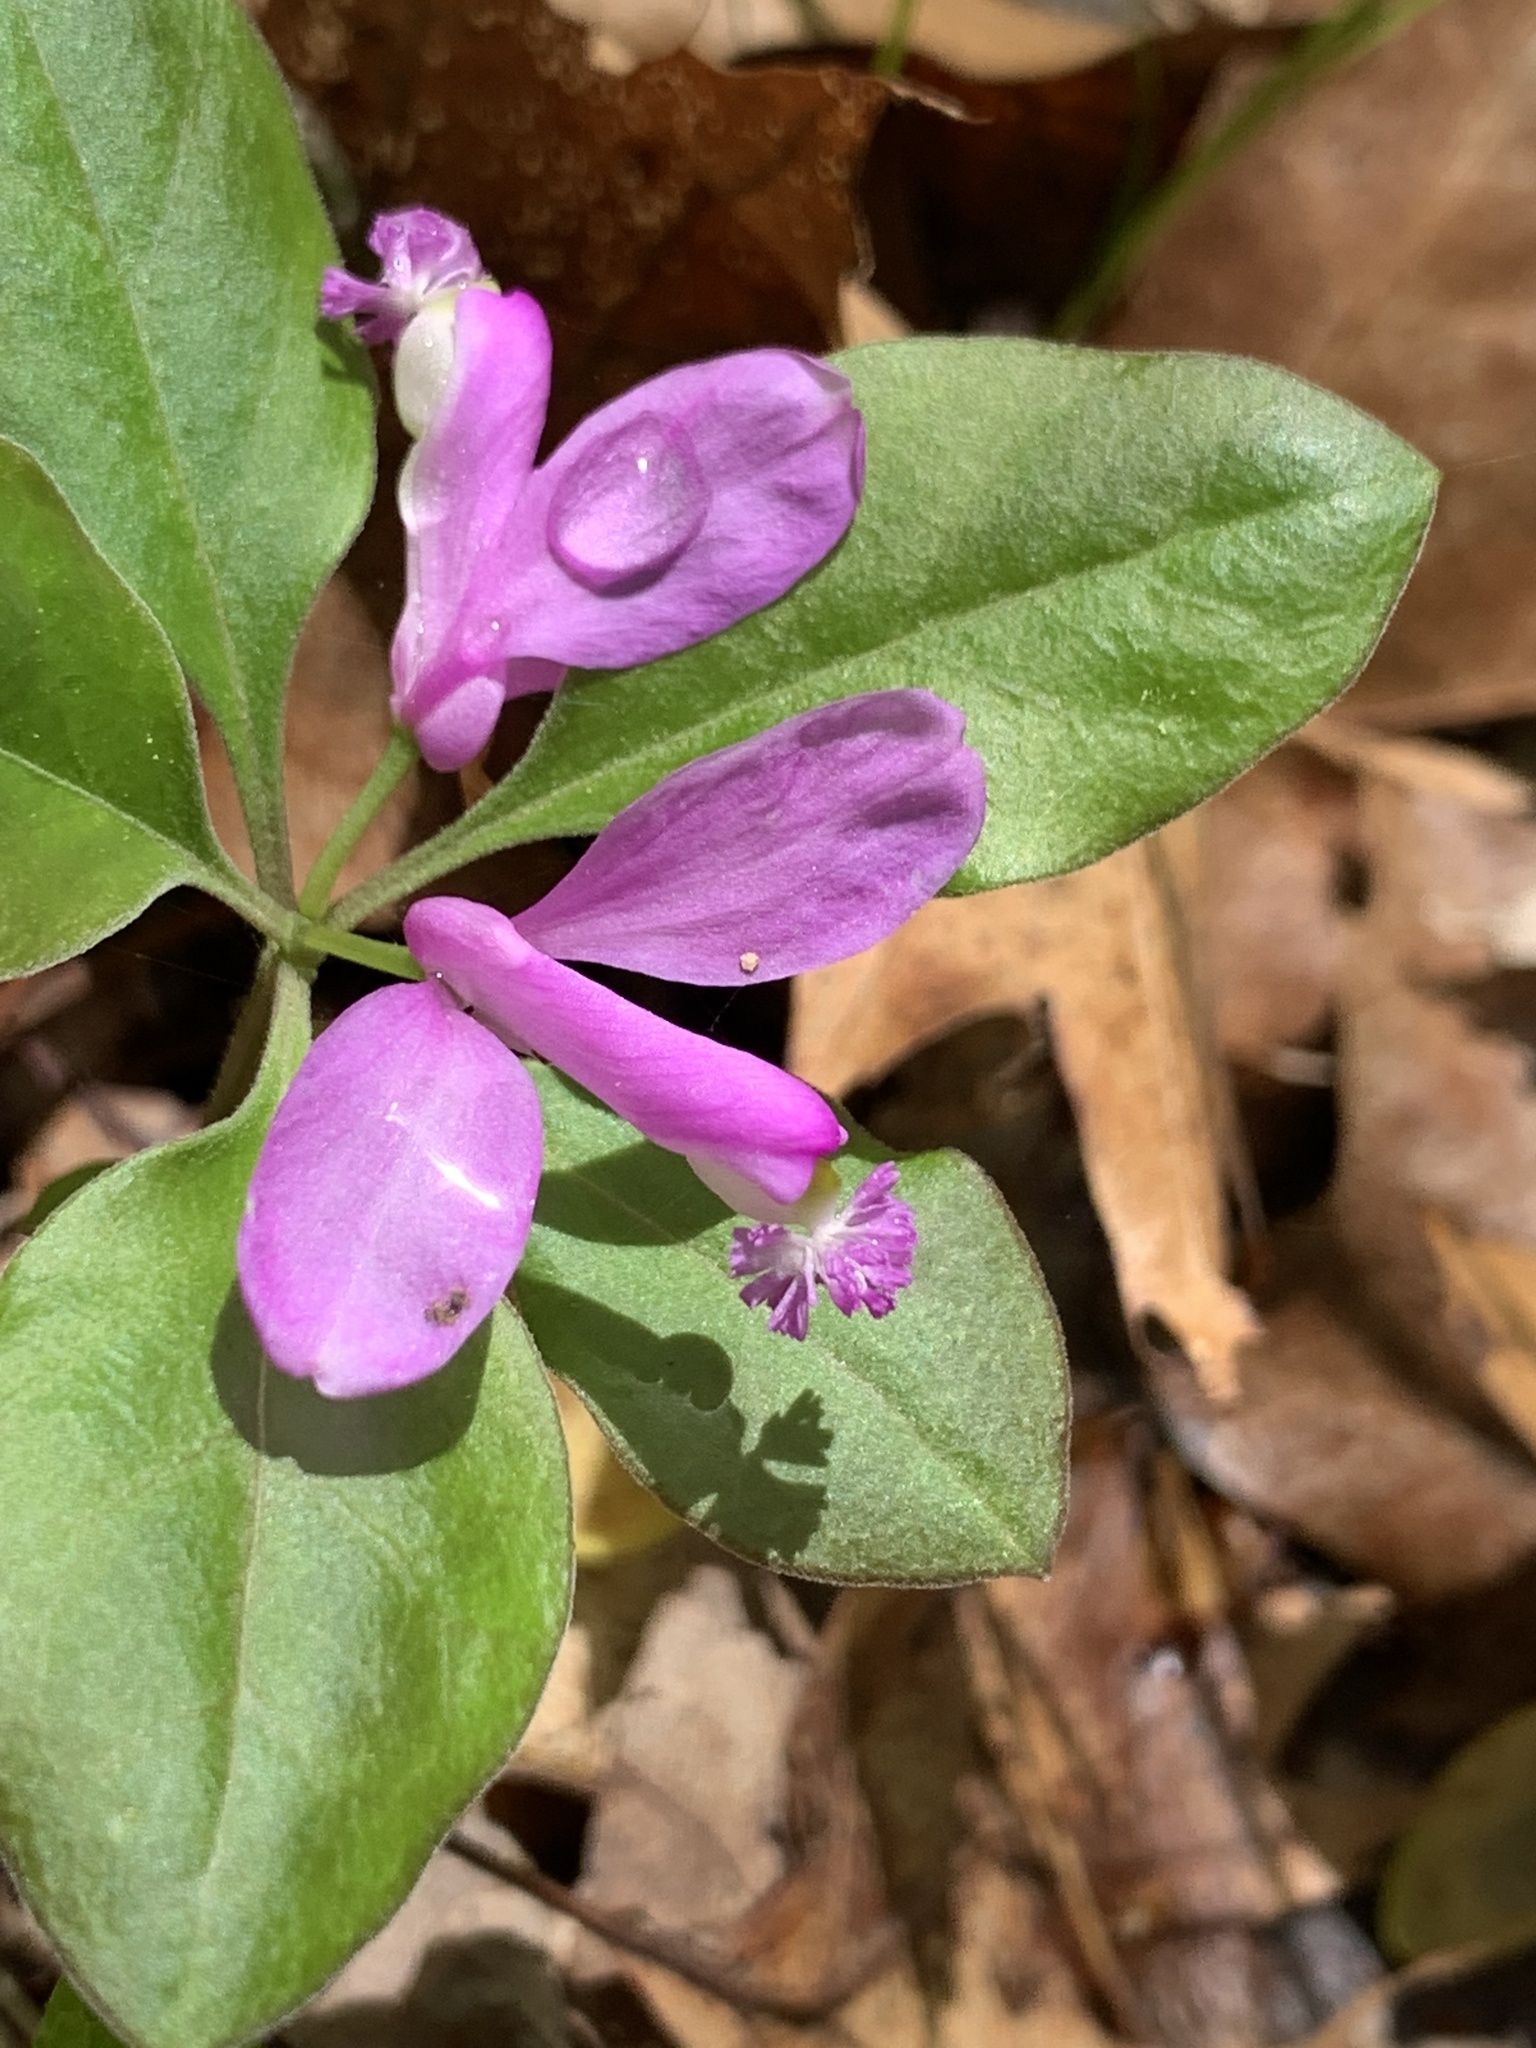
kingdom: Plantae
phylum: Tracheophyta
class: Magnoliopsida
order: Fabales
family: Polygalaceae
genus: Polygaloides
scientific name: Polygaloides paucifolia
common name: Bird-on-the-wing
